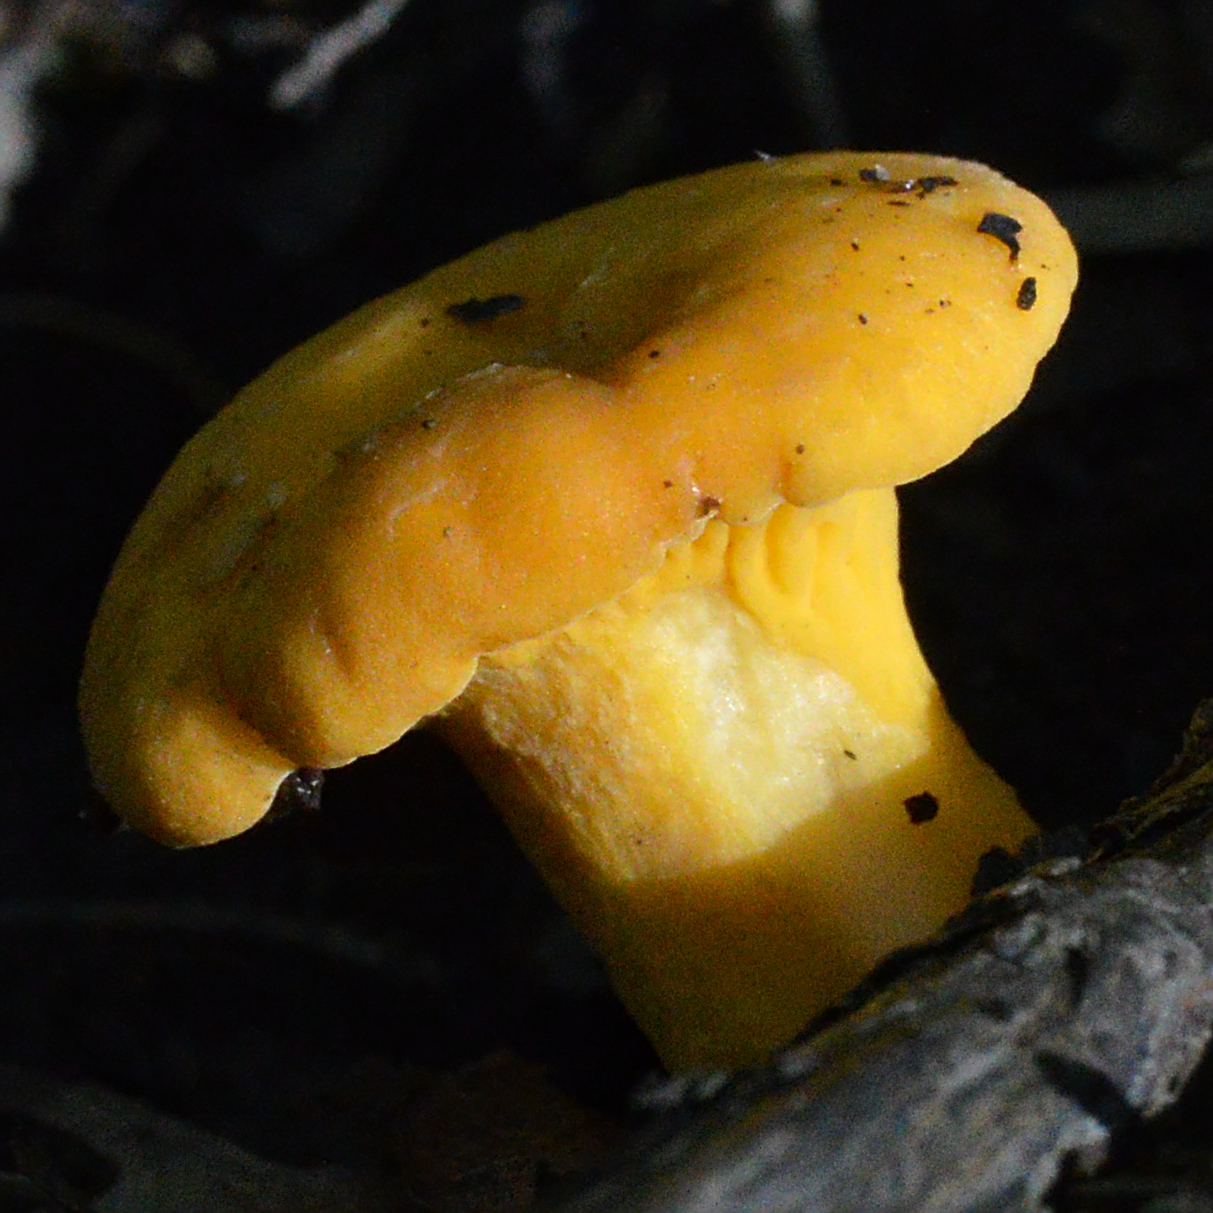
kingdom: Fungi
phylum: Basidiomycota
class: Agaricomycetes
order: Cantharellales
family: Hydnaceae
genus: Cantharellus
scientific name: Cantharellus cibarius
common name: Chanterelle
